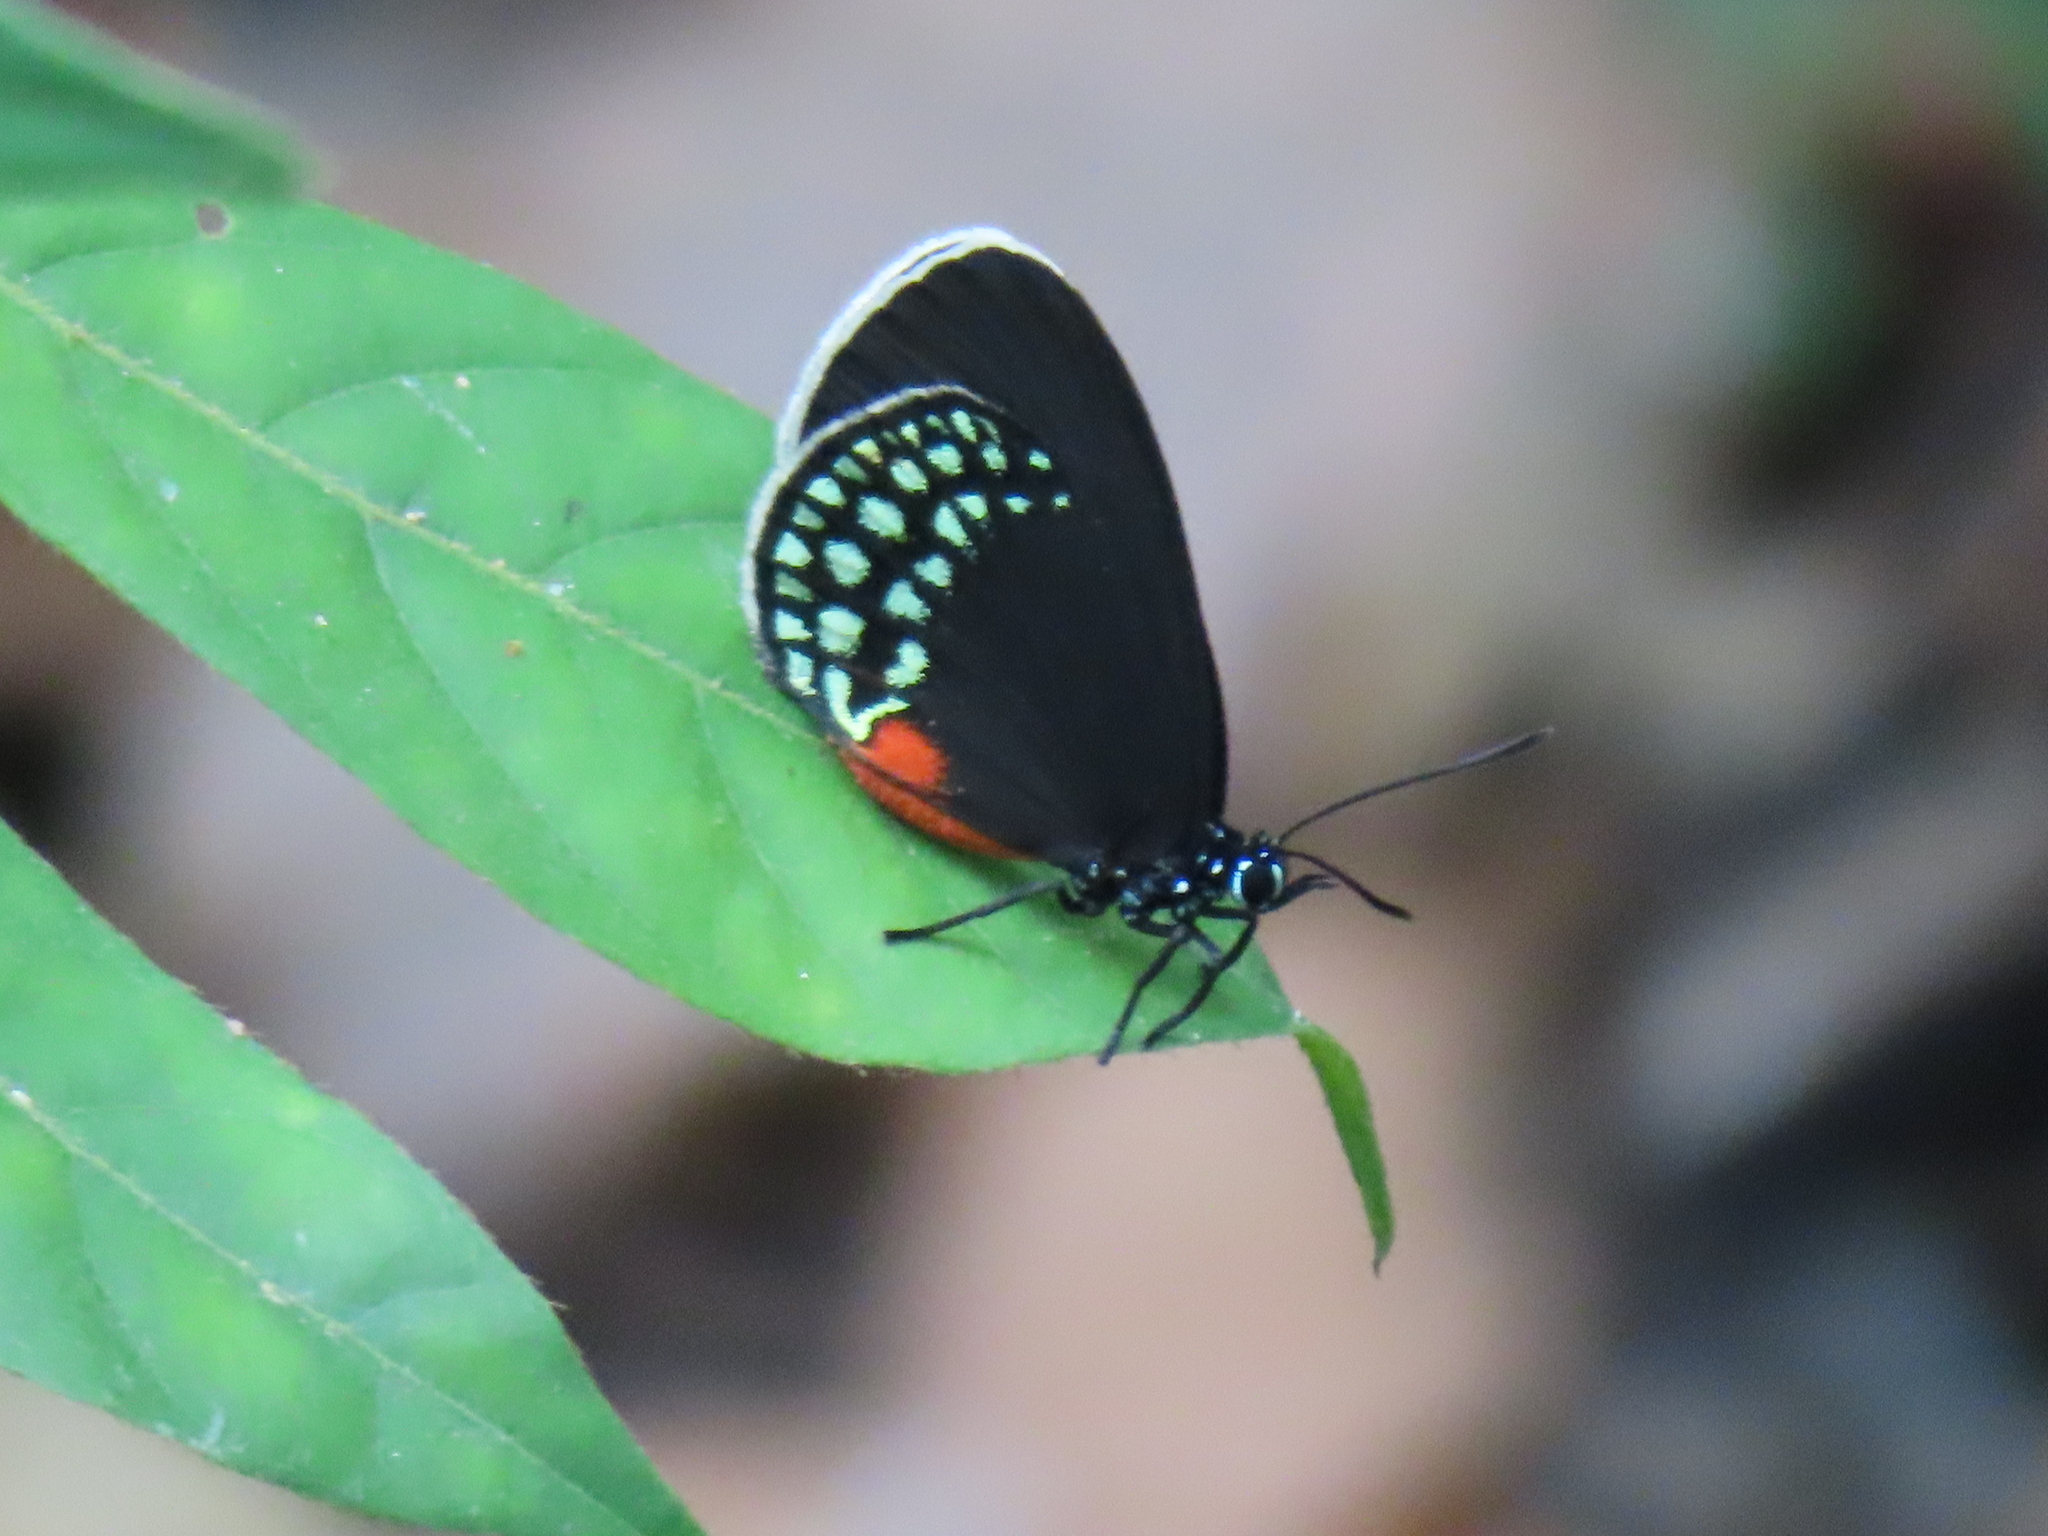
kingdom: Animalia
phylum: Arthropoda
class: Insecta
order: Lepidoptera
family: Lycaenidae
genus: Eumaeus
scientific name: Eumaeus toxea
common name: Mexican cycadian
